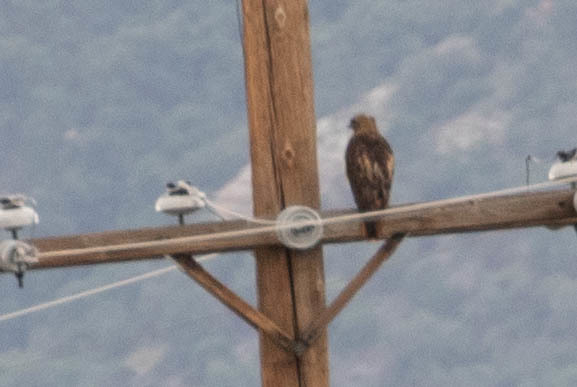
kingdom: Animalia
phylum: Chordata
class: Aves
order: Accipitriformes
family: Accipitridae
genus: Buteo
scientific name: Buteo jamaicensis
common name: Red-tailed hawk
